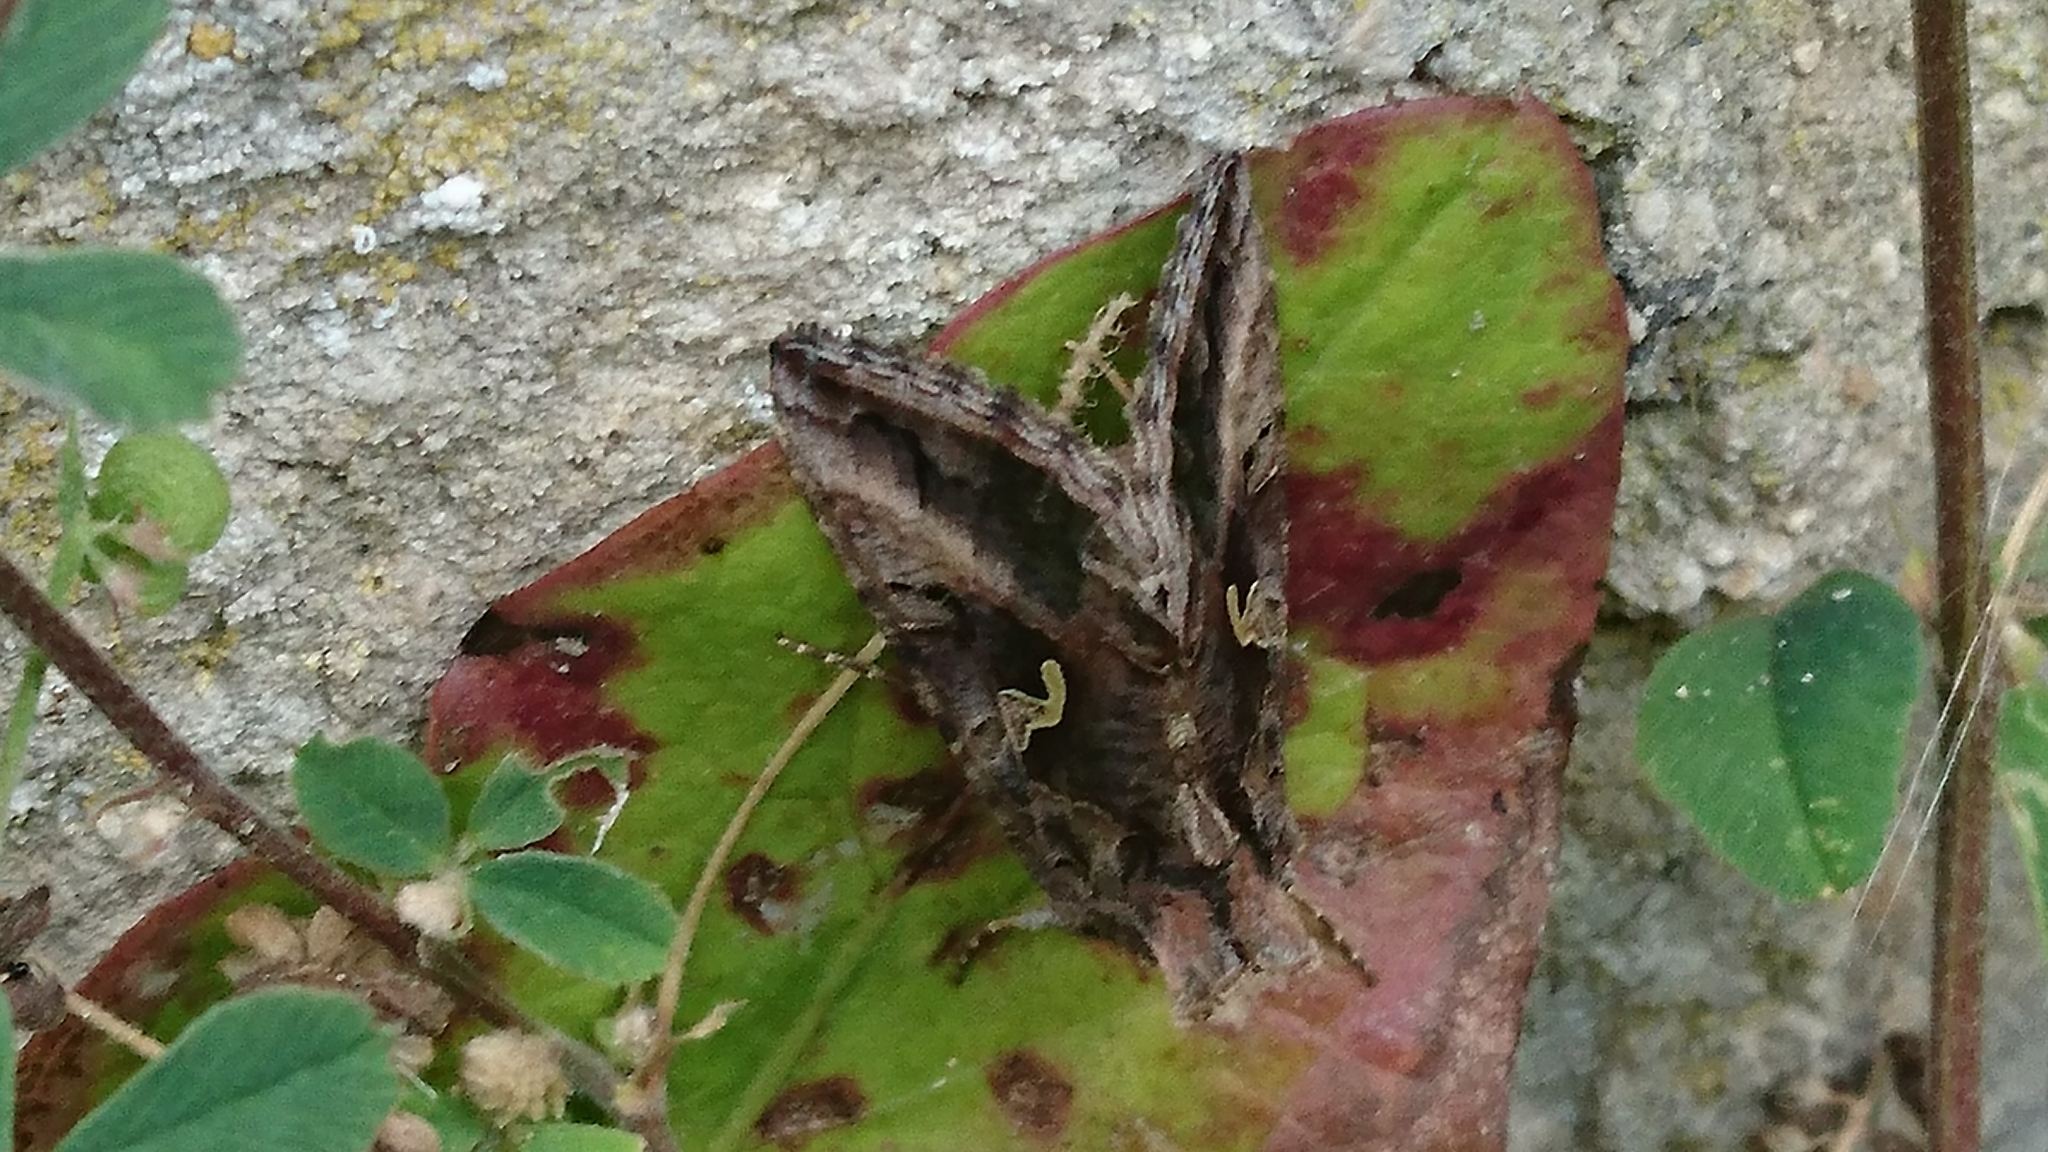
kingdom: Animalia
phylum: Arthropoda
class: Insecta
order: Lepidoptera
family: Noctuidae
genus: Autographa
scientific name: Autographa gamma
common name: Silver y
